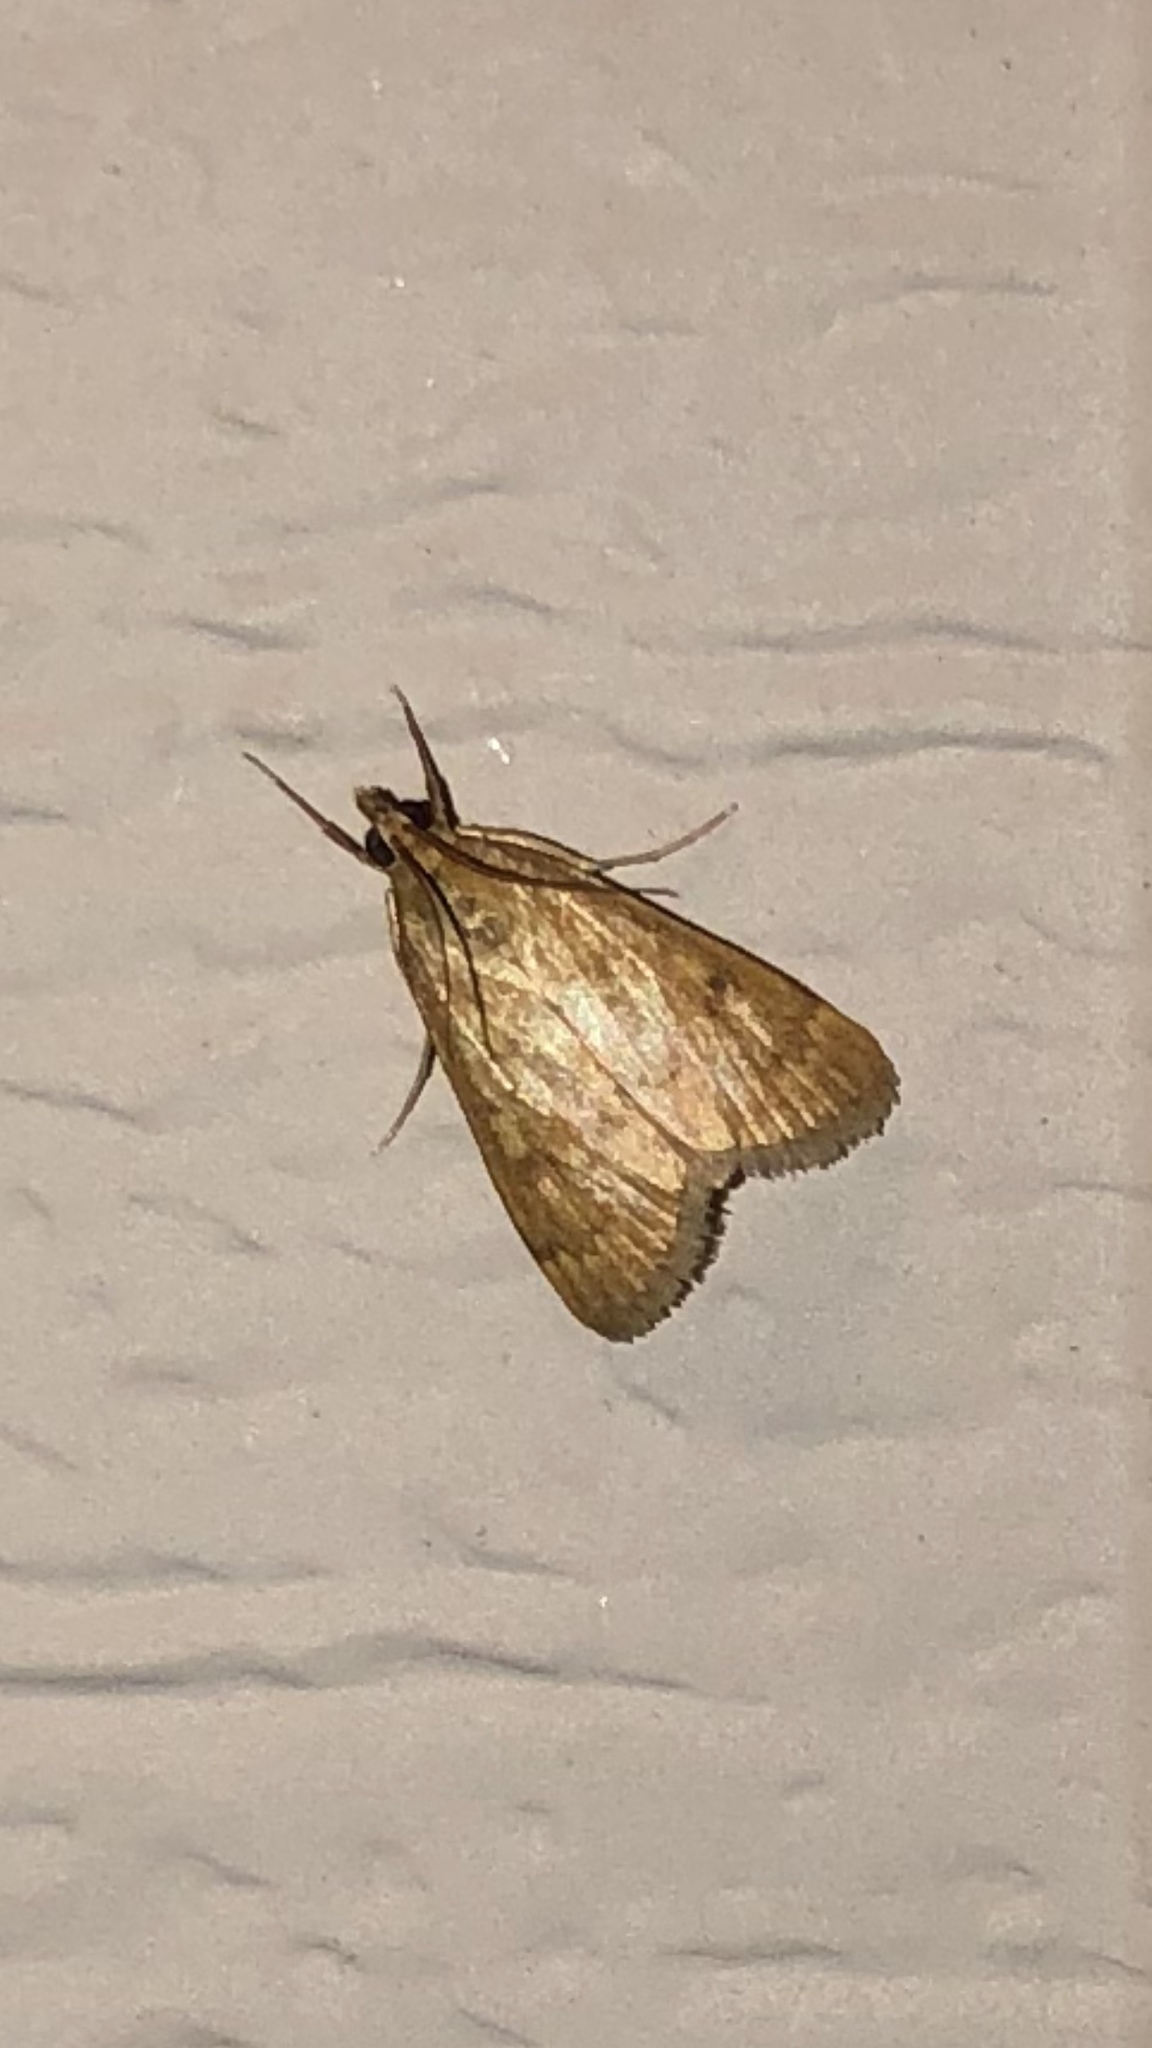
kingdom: Animalia
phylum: Arthropoda
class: Insecta
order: Lepidoptera
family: Crambidae
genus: Achyra
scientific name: Achyra rantalis
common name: Garden webworm
